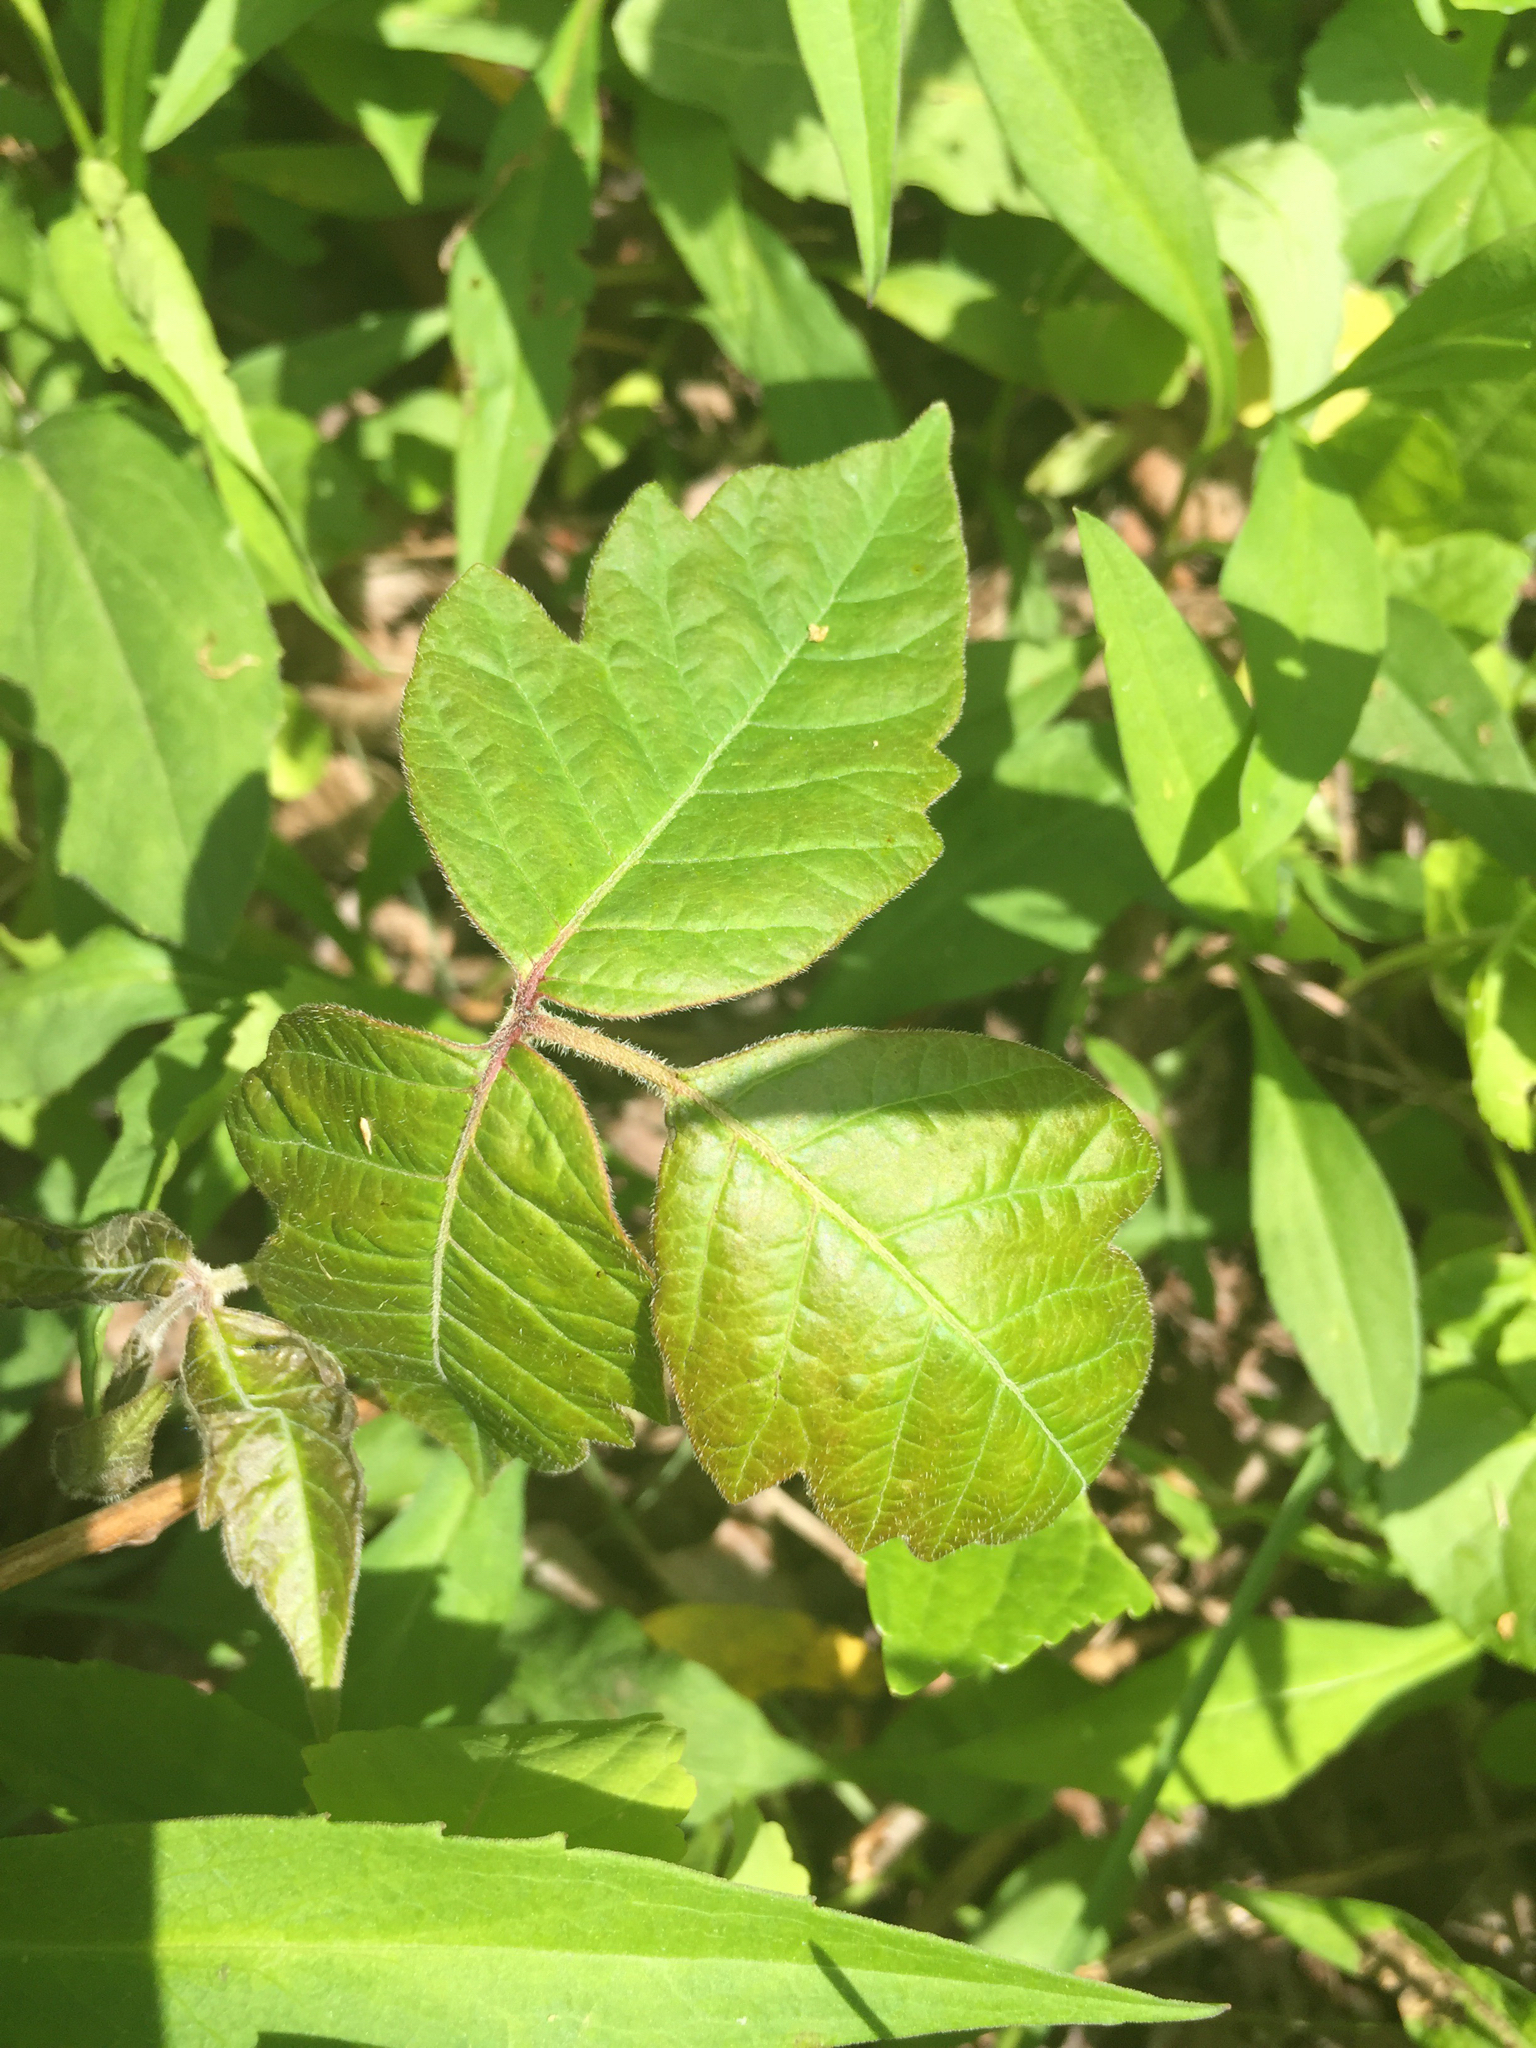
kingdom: Plantae
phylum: Tracheophyta
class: Magnoliopsida
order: Sapindales
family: Anacardiaceae
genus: Toxicodendron
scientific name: Toxicodendron radicans
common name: Poison ivy
